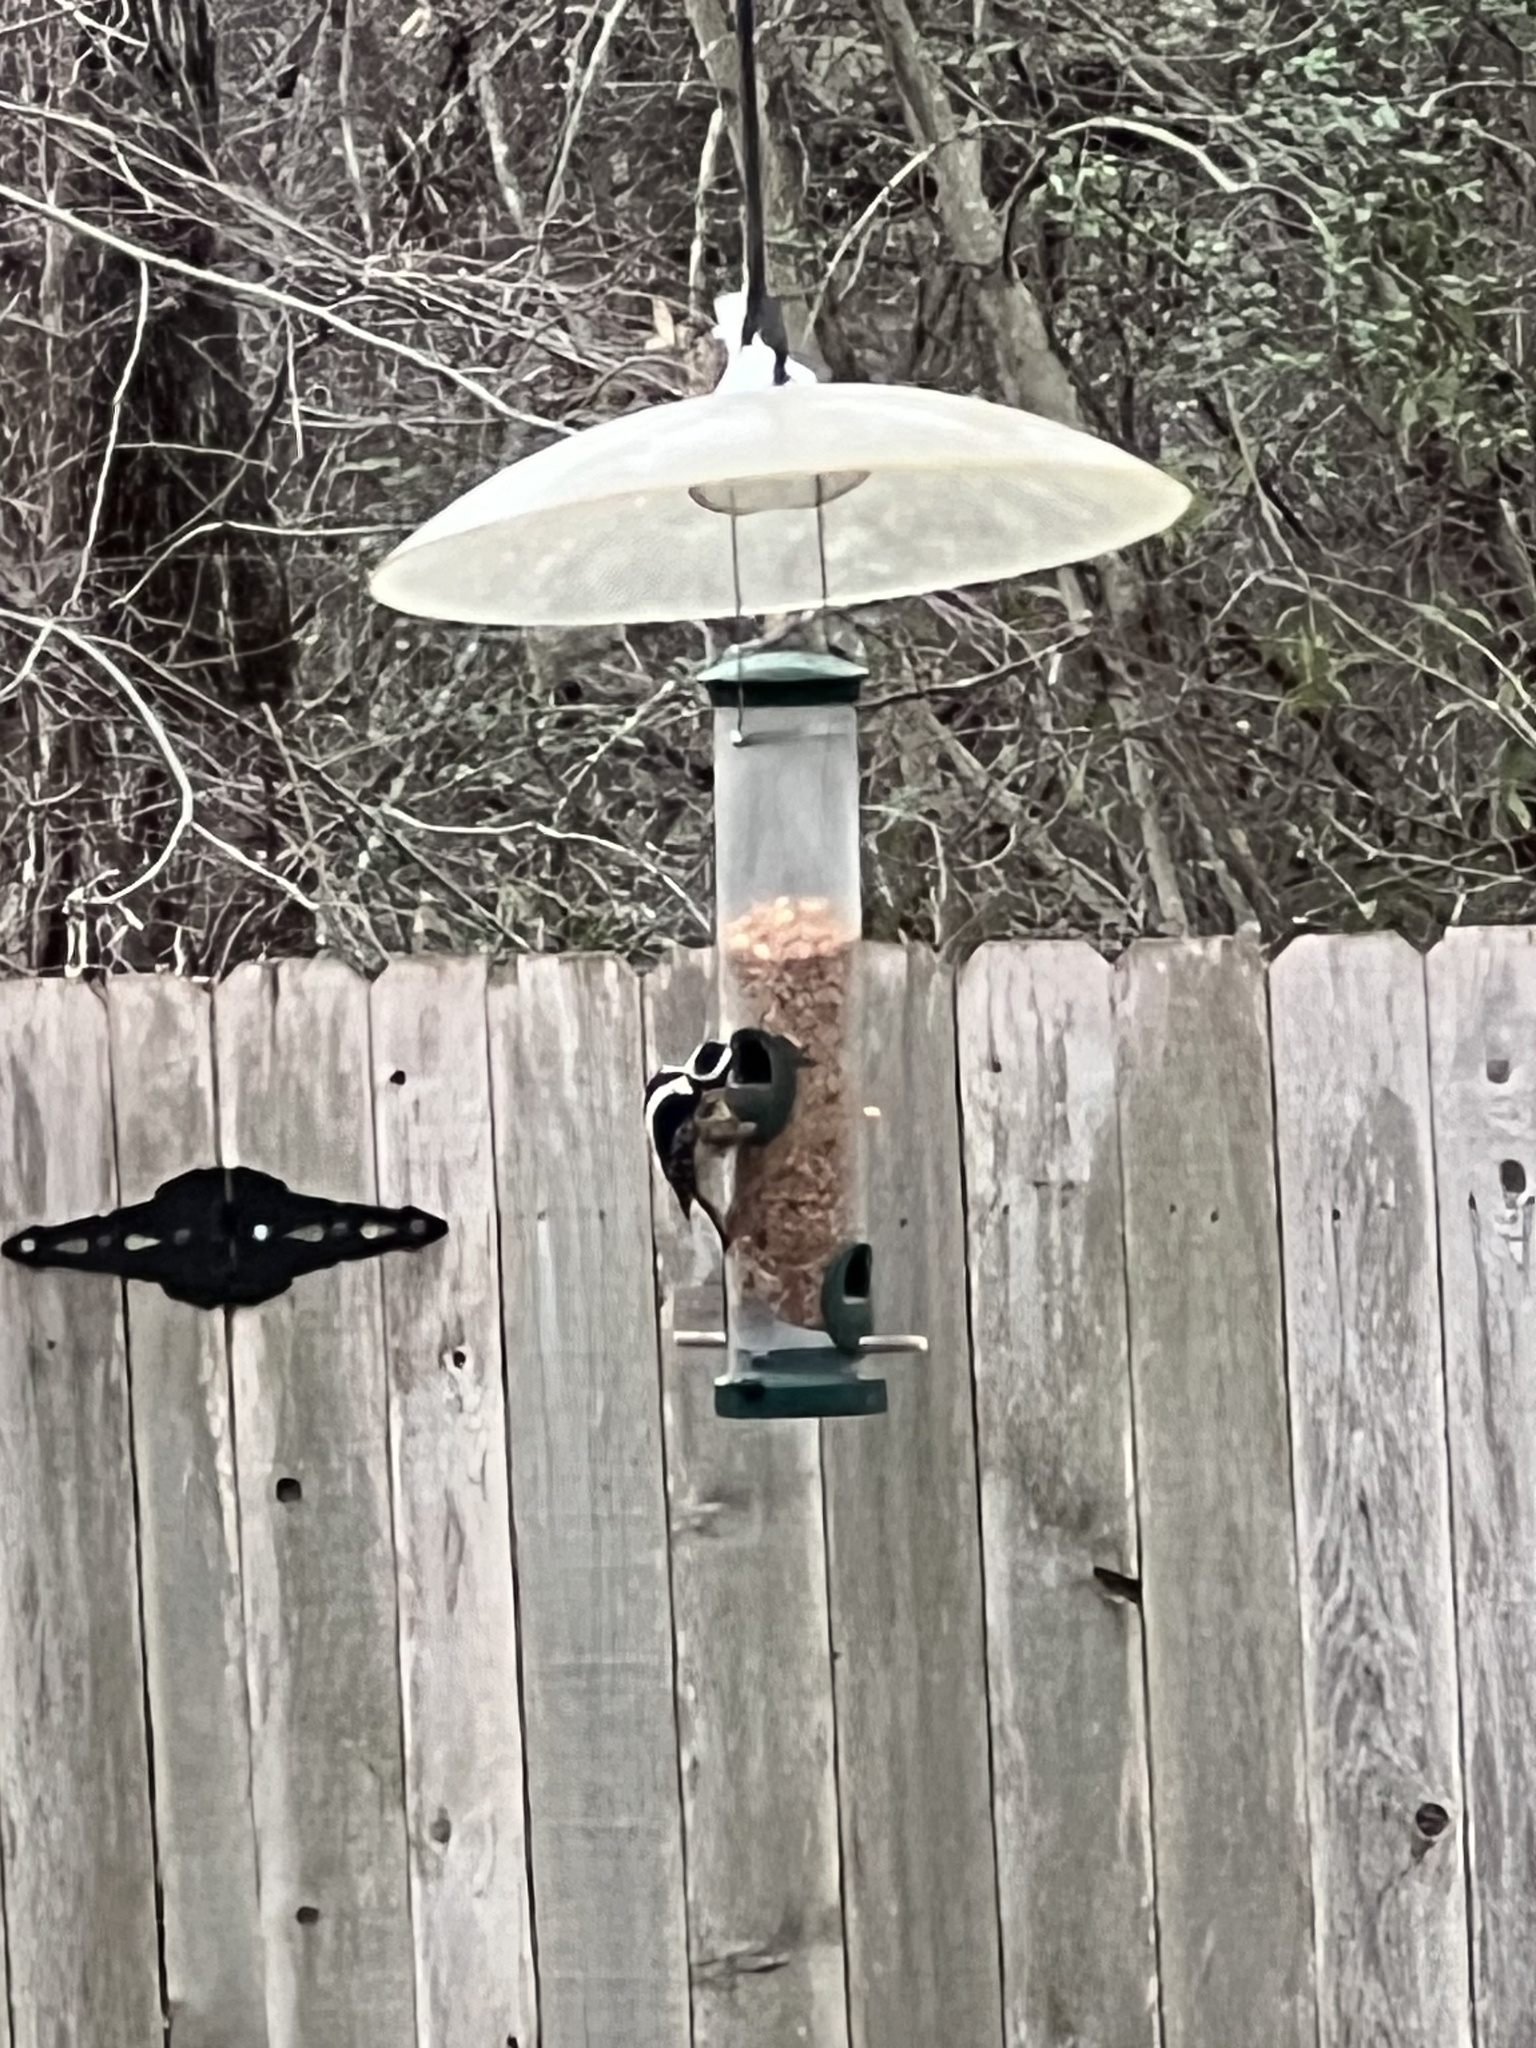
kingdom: Animalia
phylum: Chordata
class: Aves
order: Piciformes
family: Picidae
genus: Dryobates
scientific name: Dryobates pubescens
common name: Downy woodpecker
